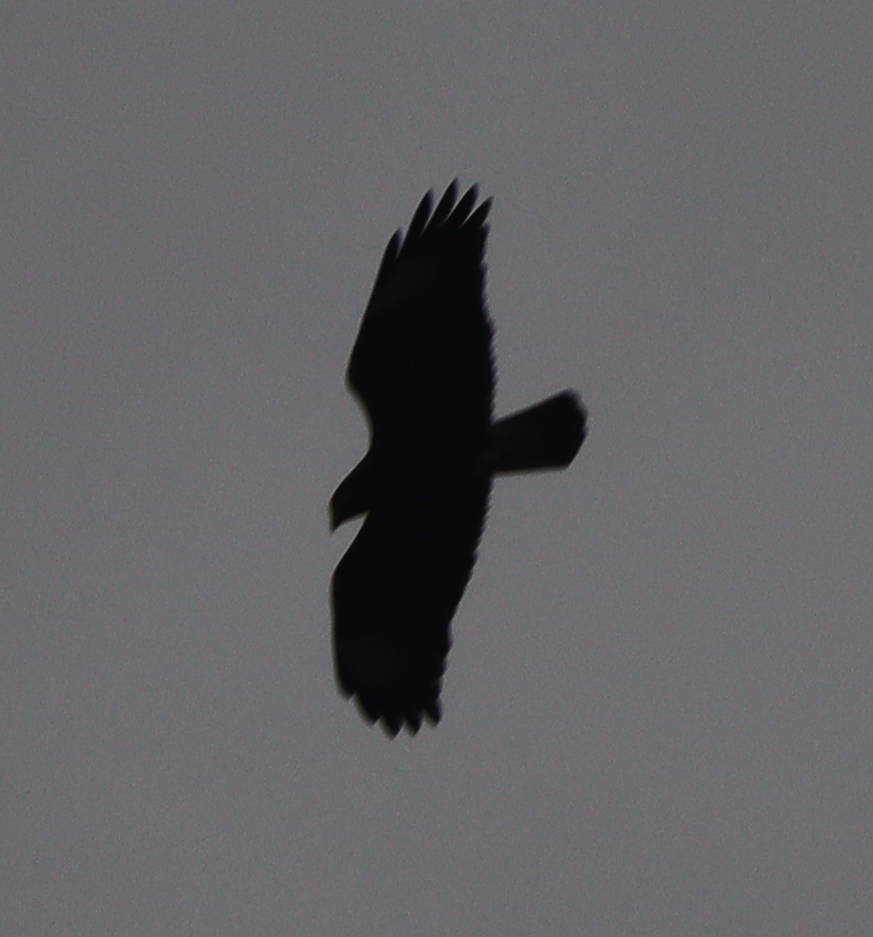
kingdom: Animalia
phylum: Chordata
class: Aves
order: Accipitriformes
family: Accipitridae
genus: Buteo
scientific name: Buteo buteo
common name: Common buzzard
